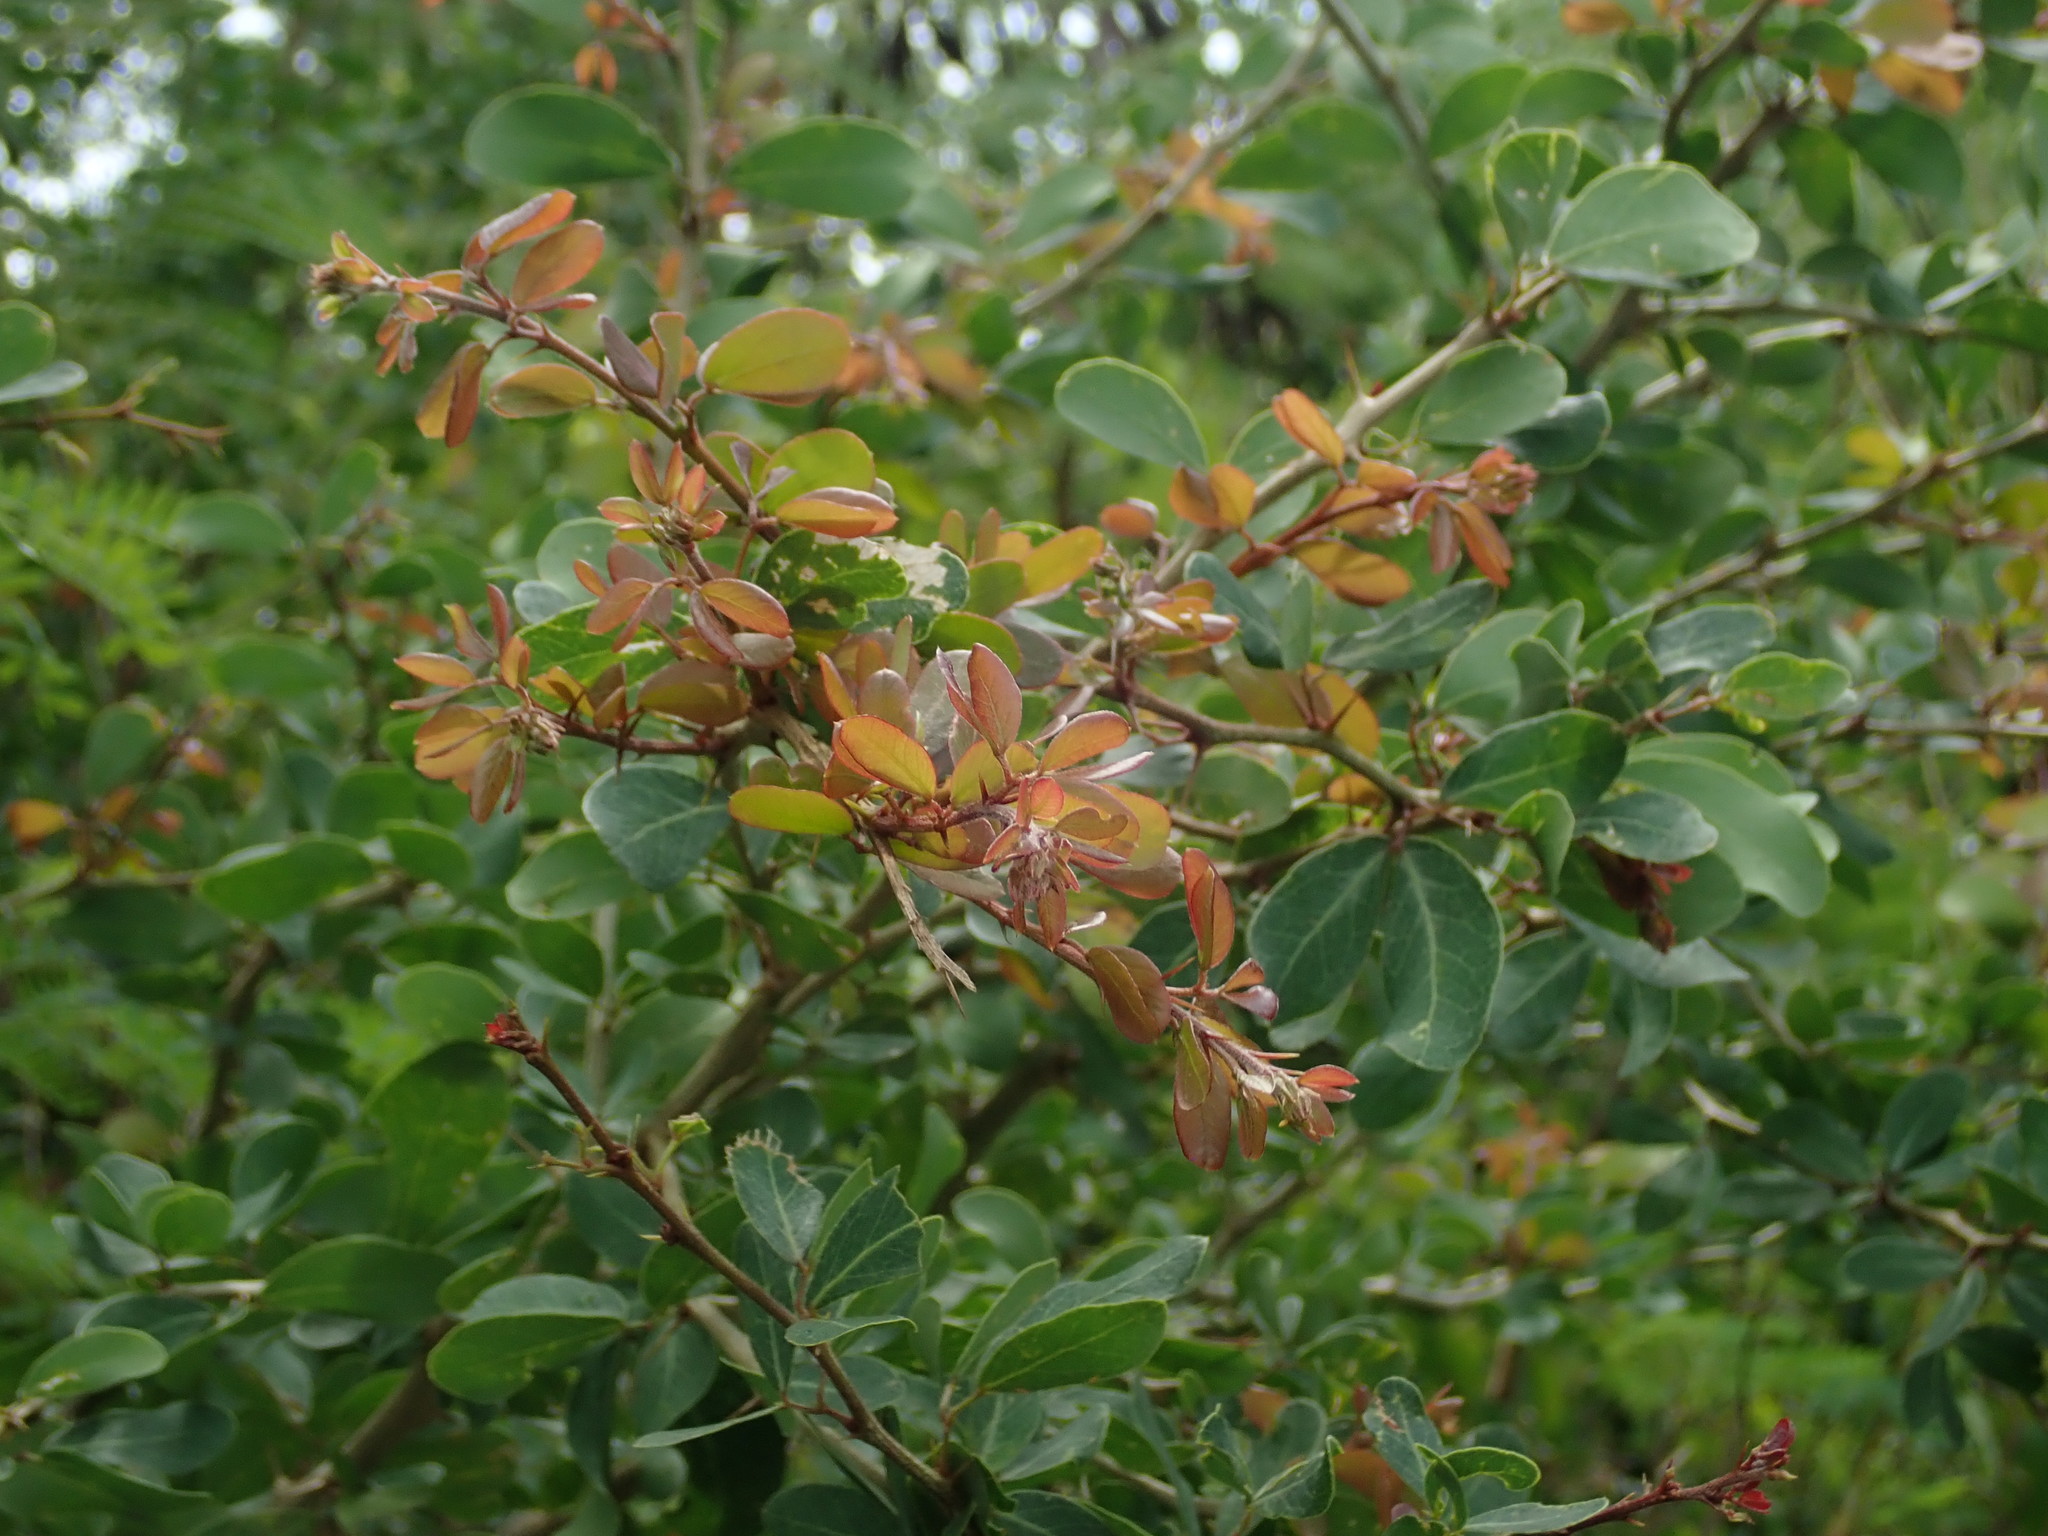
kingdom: Plantae
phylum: Tracheophyta
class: Magnoliopsida
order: Fabales
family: Fabaceae
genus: Pithecellobium
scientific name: Pithecellobium unguis-cati
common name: Cat's-claw
